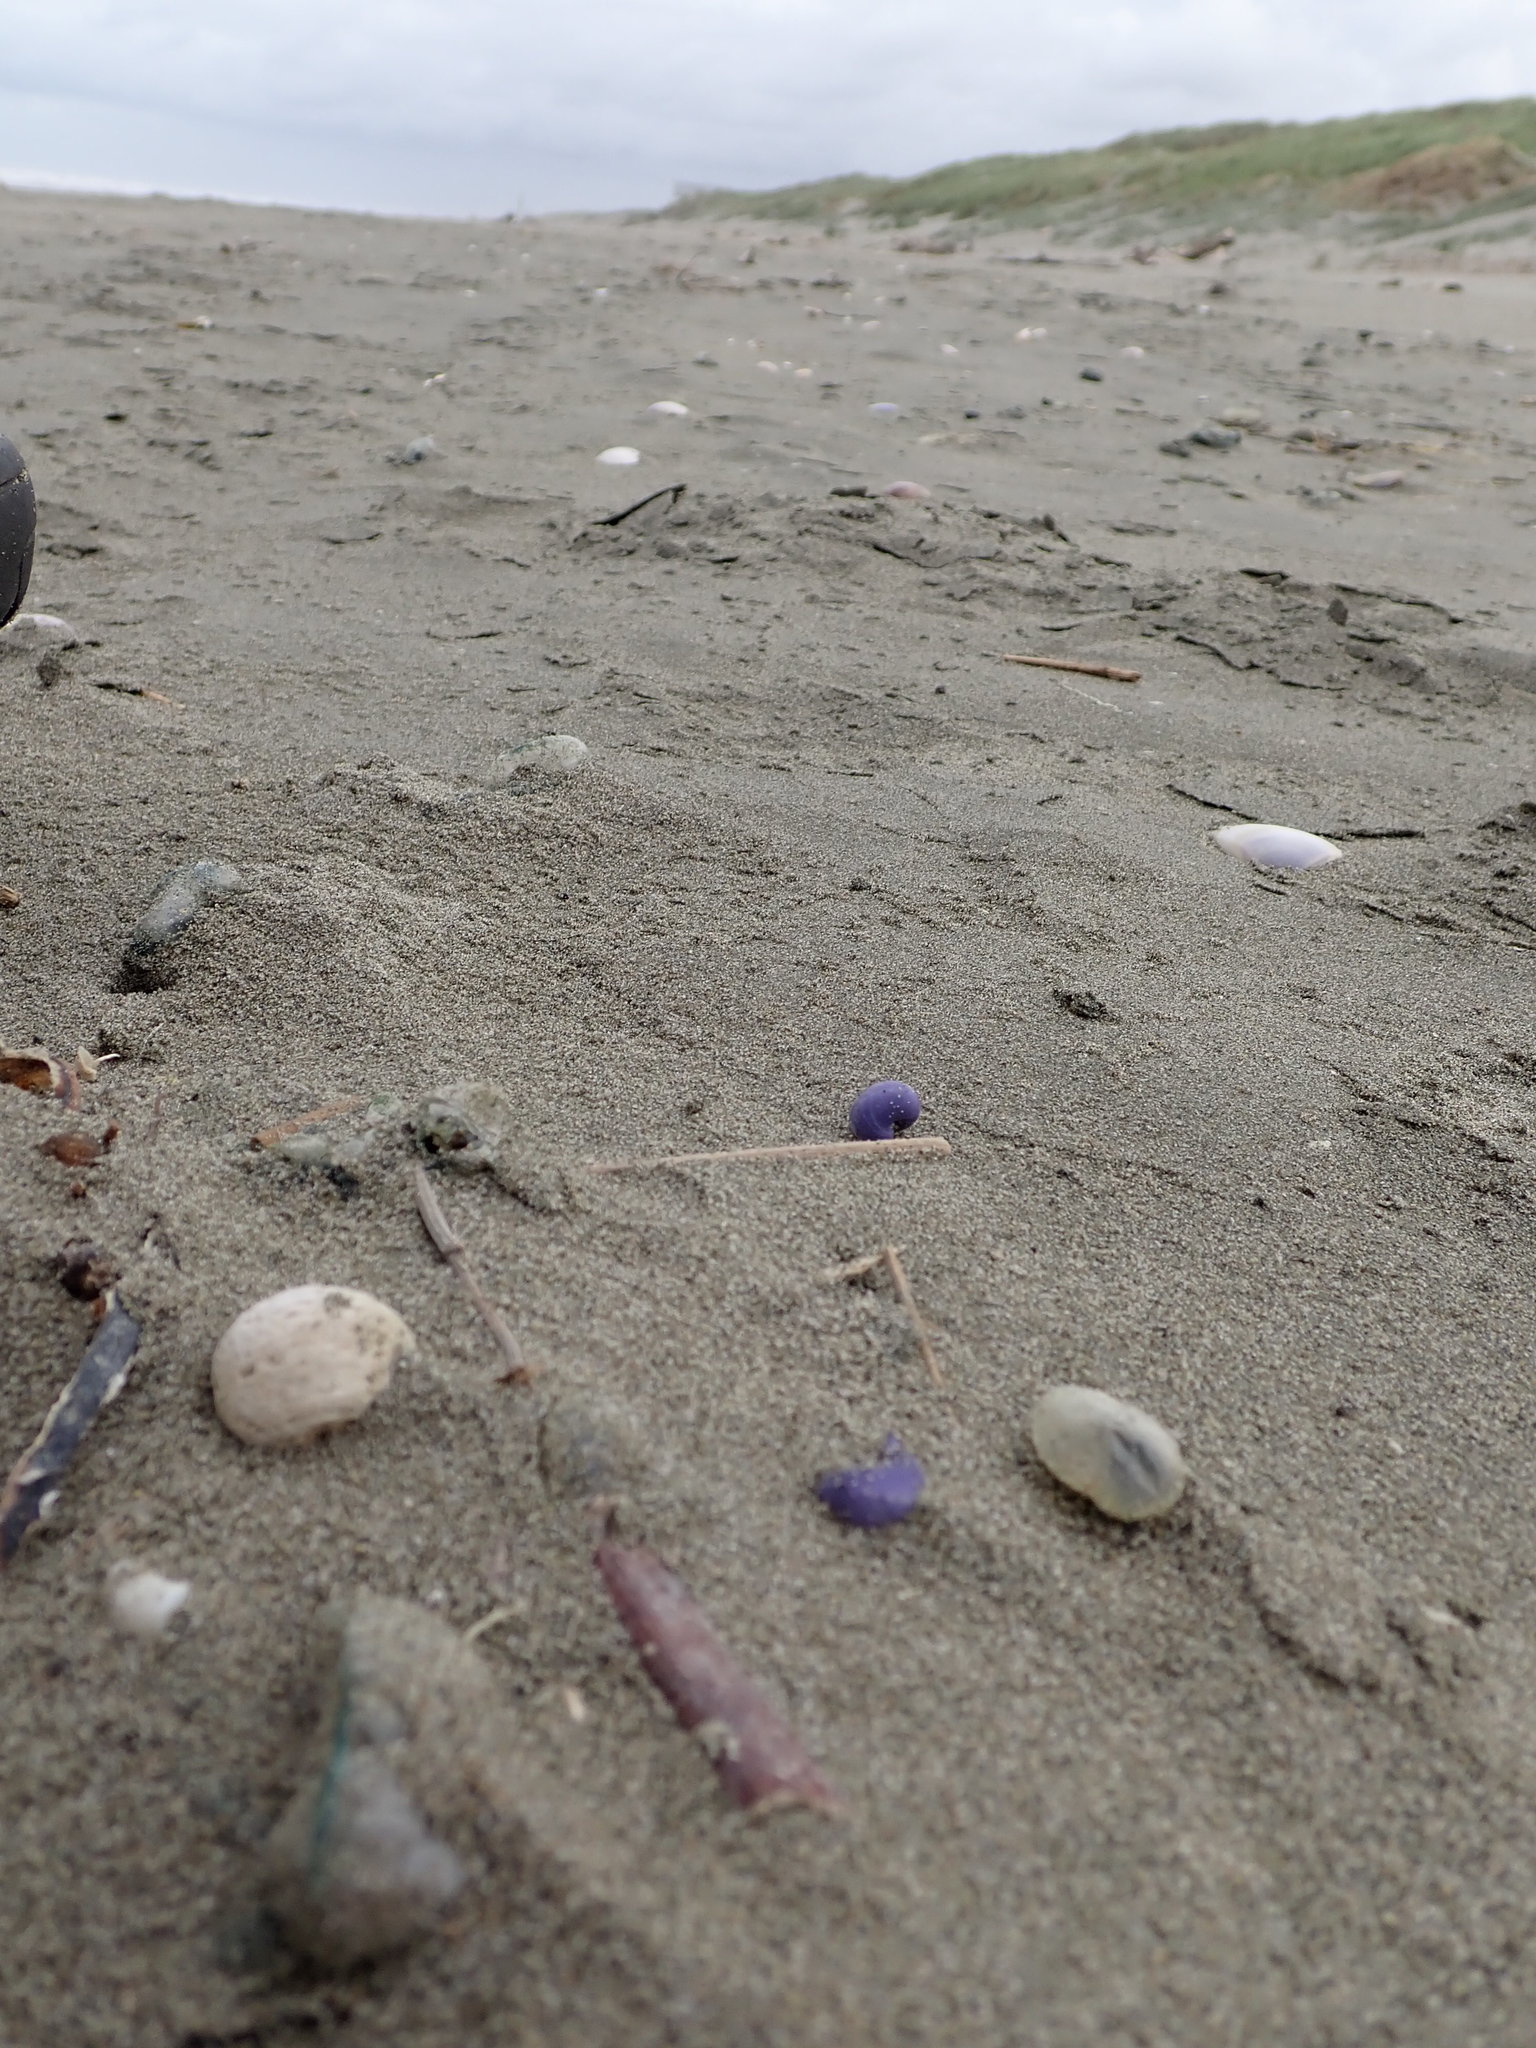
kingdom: Animalia
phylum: Mollusca
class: Gastropoda
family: Epitoniidae
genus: Janthina
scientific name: Janthina exigua
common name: Dwarf janthina
